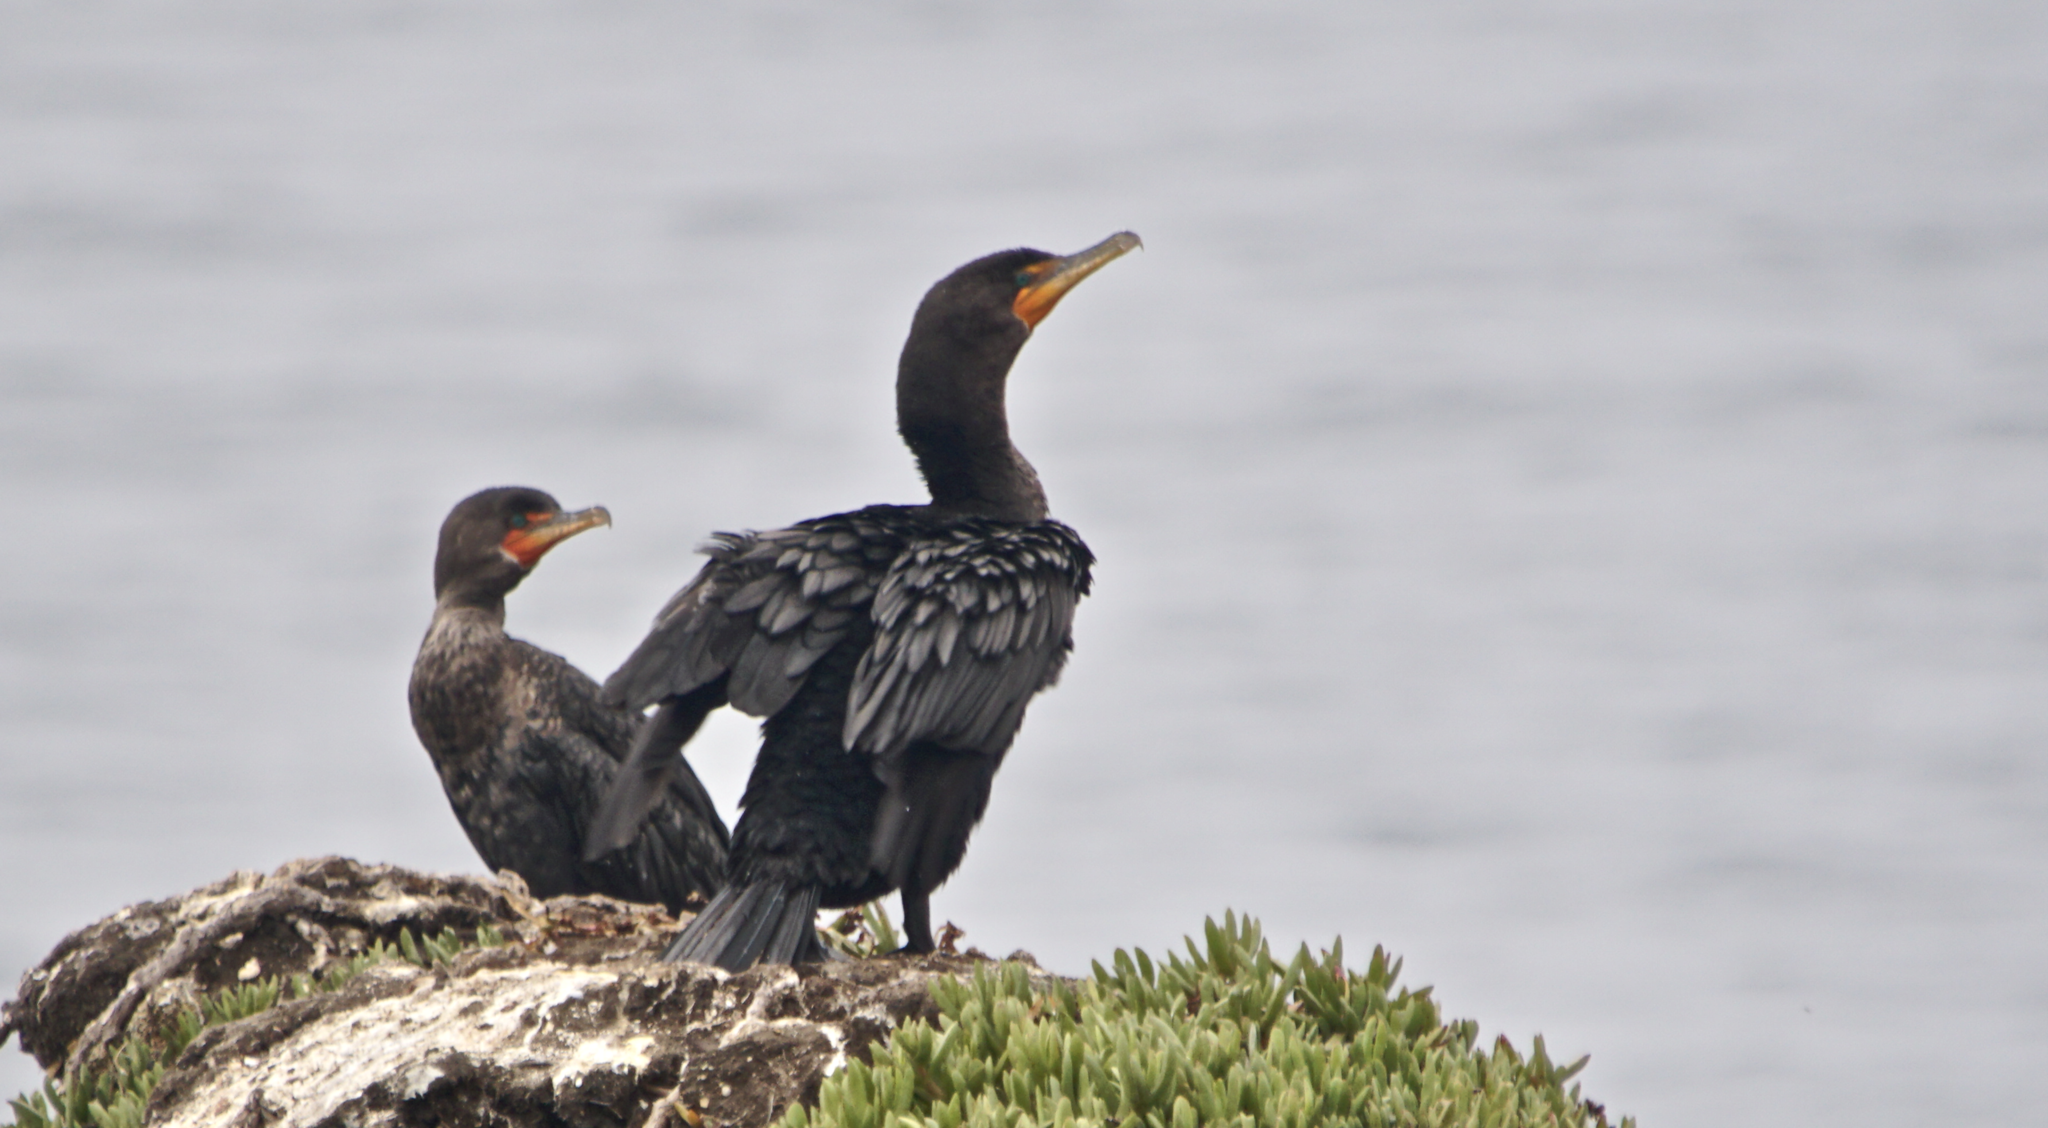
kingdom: Animalia
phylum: Chordata
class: Aves
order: Suliformes
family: Phalacrocoracidae
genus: Phalacrocorax
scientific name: Phalacrocorax auritus
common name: Double-crested cormorant
